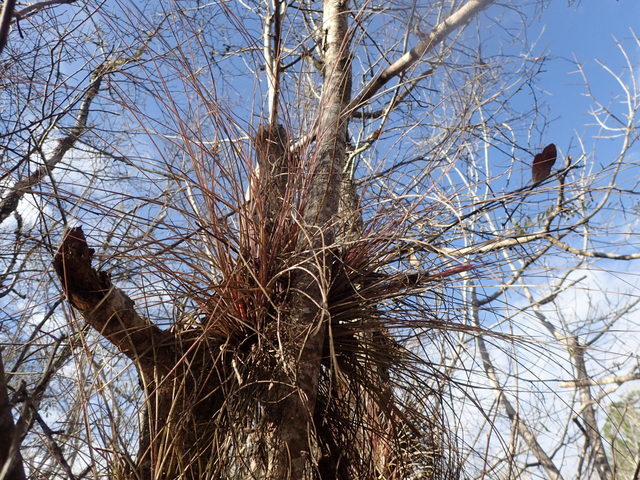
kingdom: Plantae
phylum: Tracheophyta
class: Liliopsida
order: Poales
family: Bromeliaceae
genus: Tillandsia
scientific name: Tillandsia bartramii
